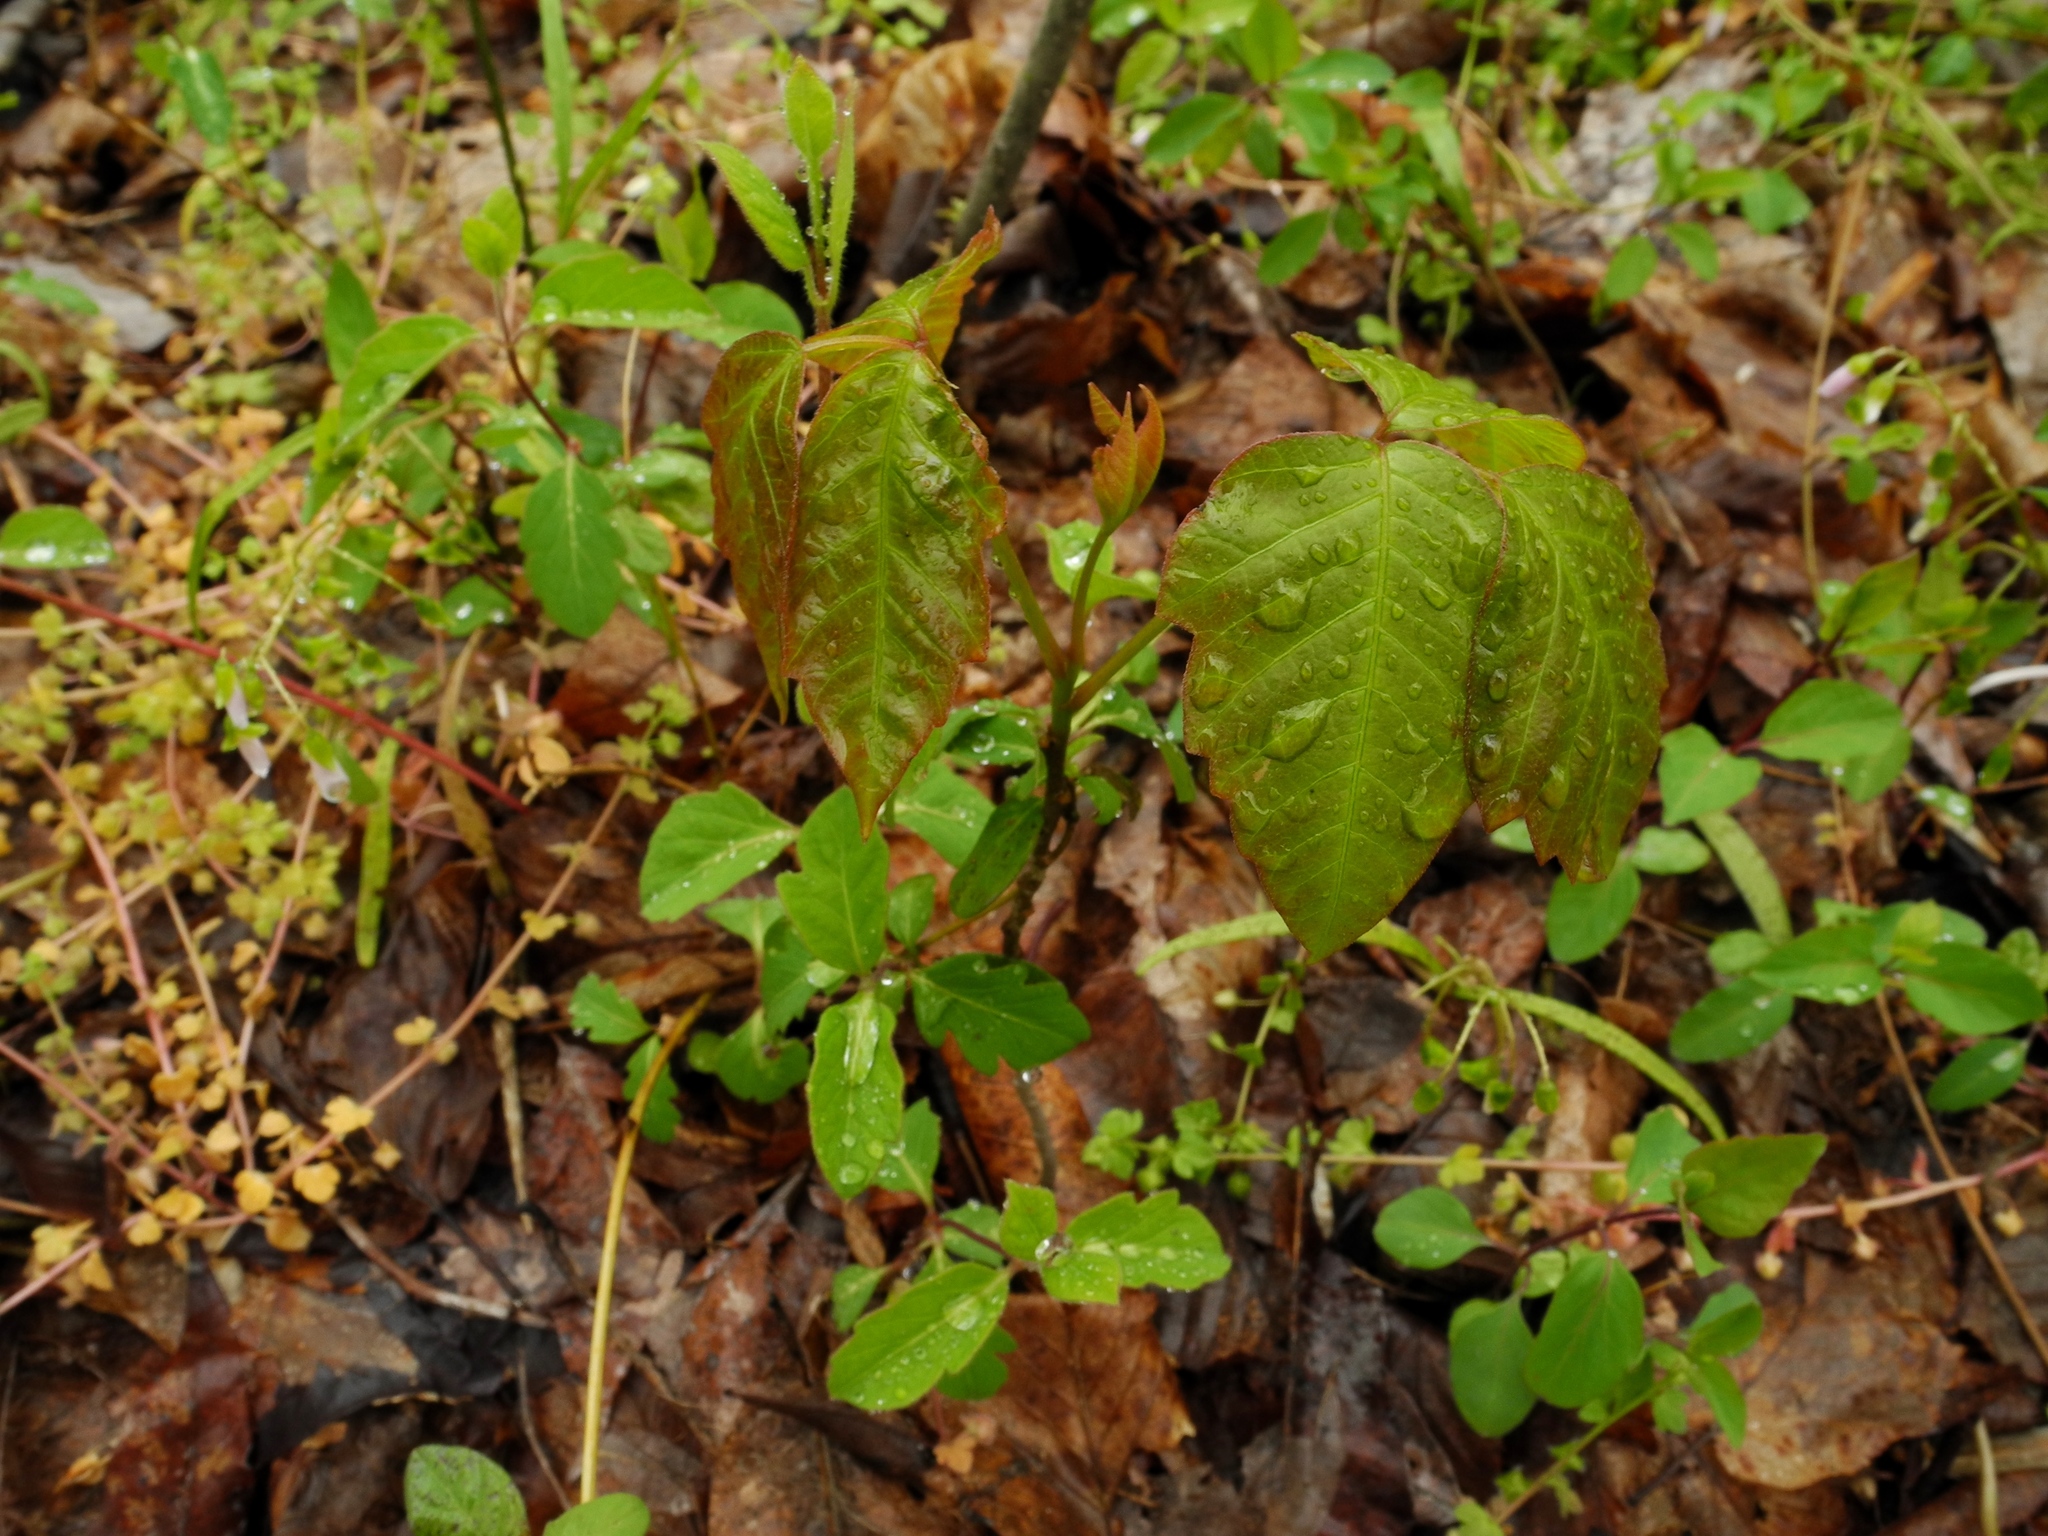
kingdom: Plantae
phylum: Tracheophyta
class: Magnoliopsida
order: Sapindales
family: Anacardiaceae
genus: Toxicodendron
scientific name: Toxicodendron radicans
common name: Poison ivy
